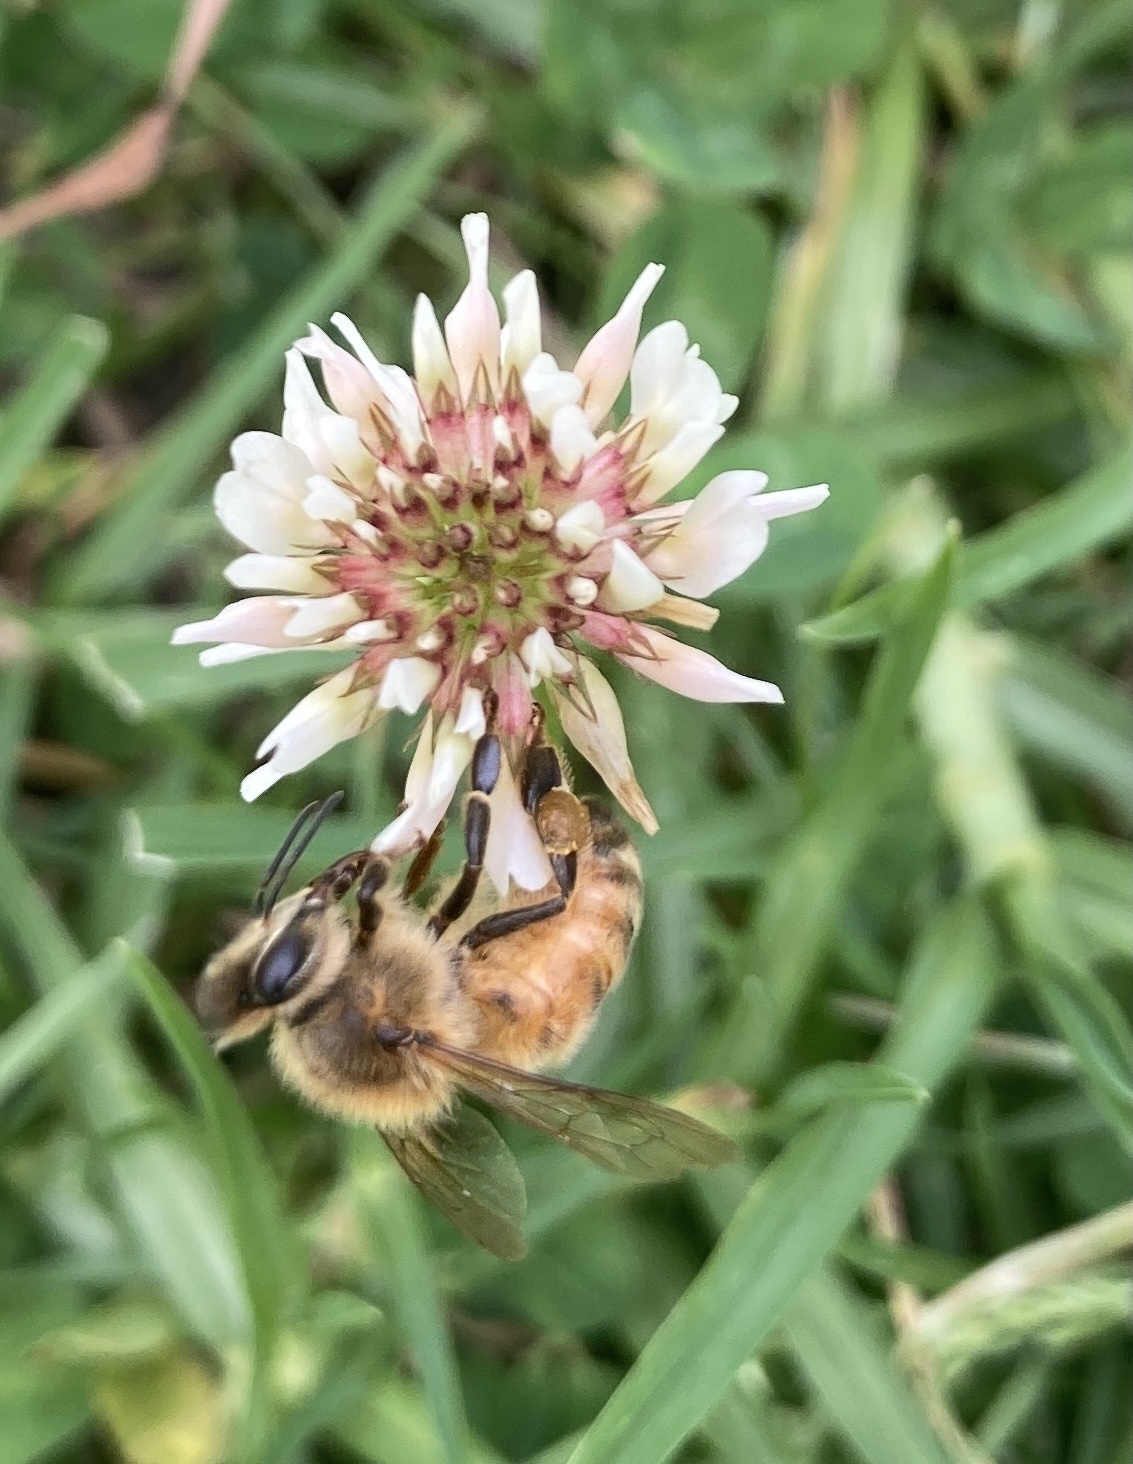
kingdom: Animalia
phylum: Arthropoda
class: Insecta
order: Hymenoptera
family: Apidae
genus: Apis
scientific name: Apis mellifera
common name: Honey bee
